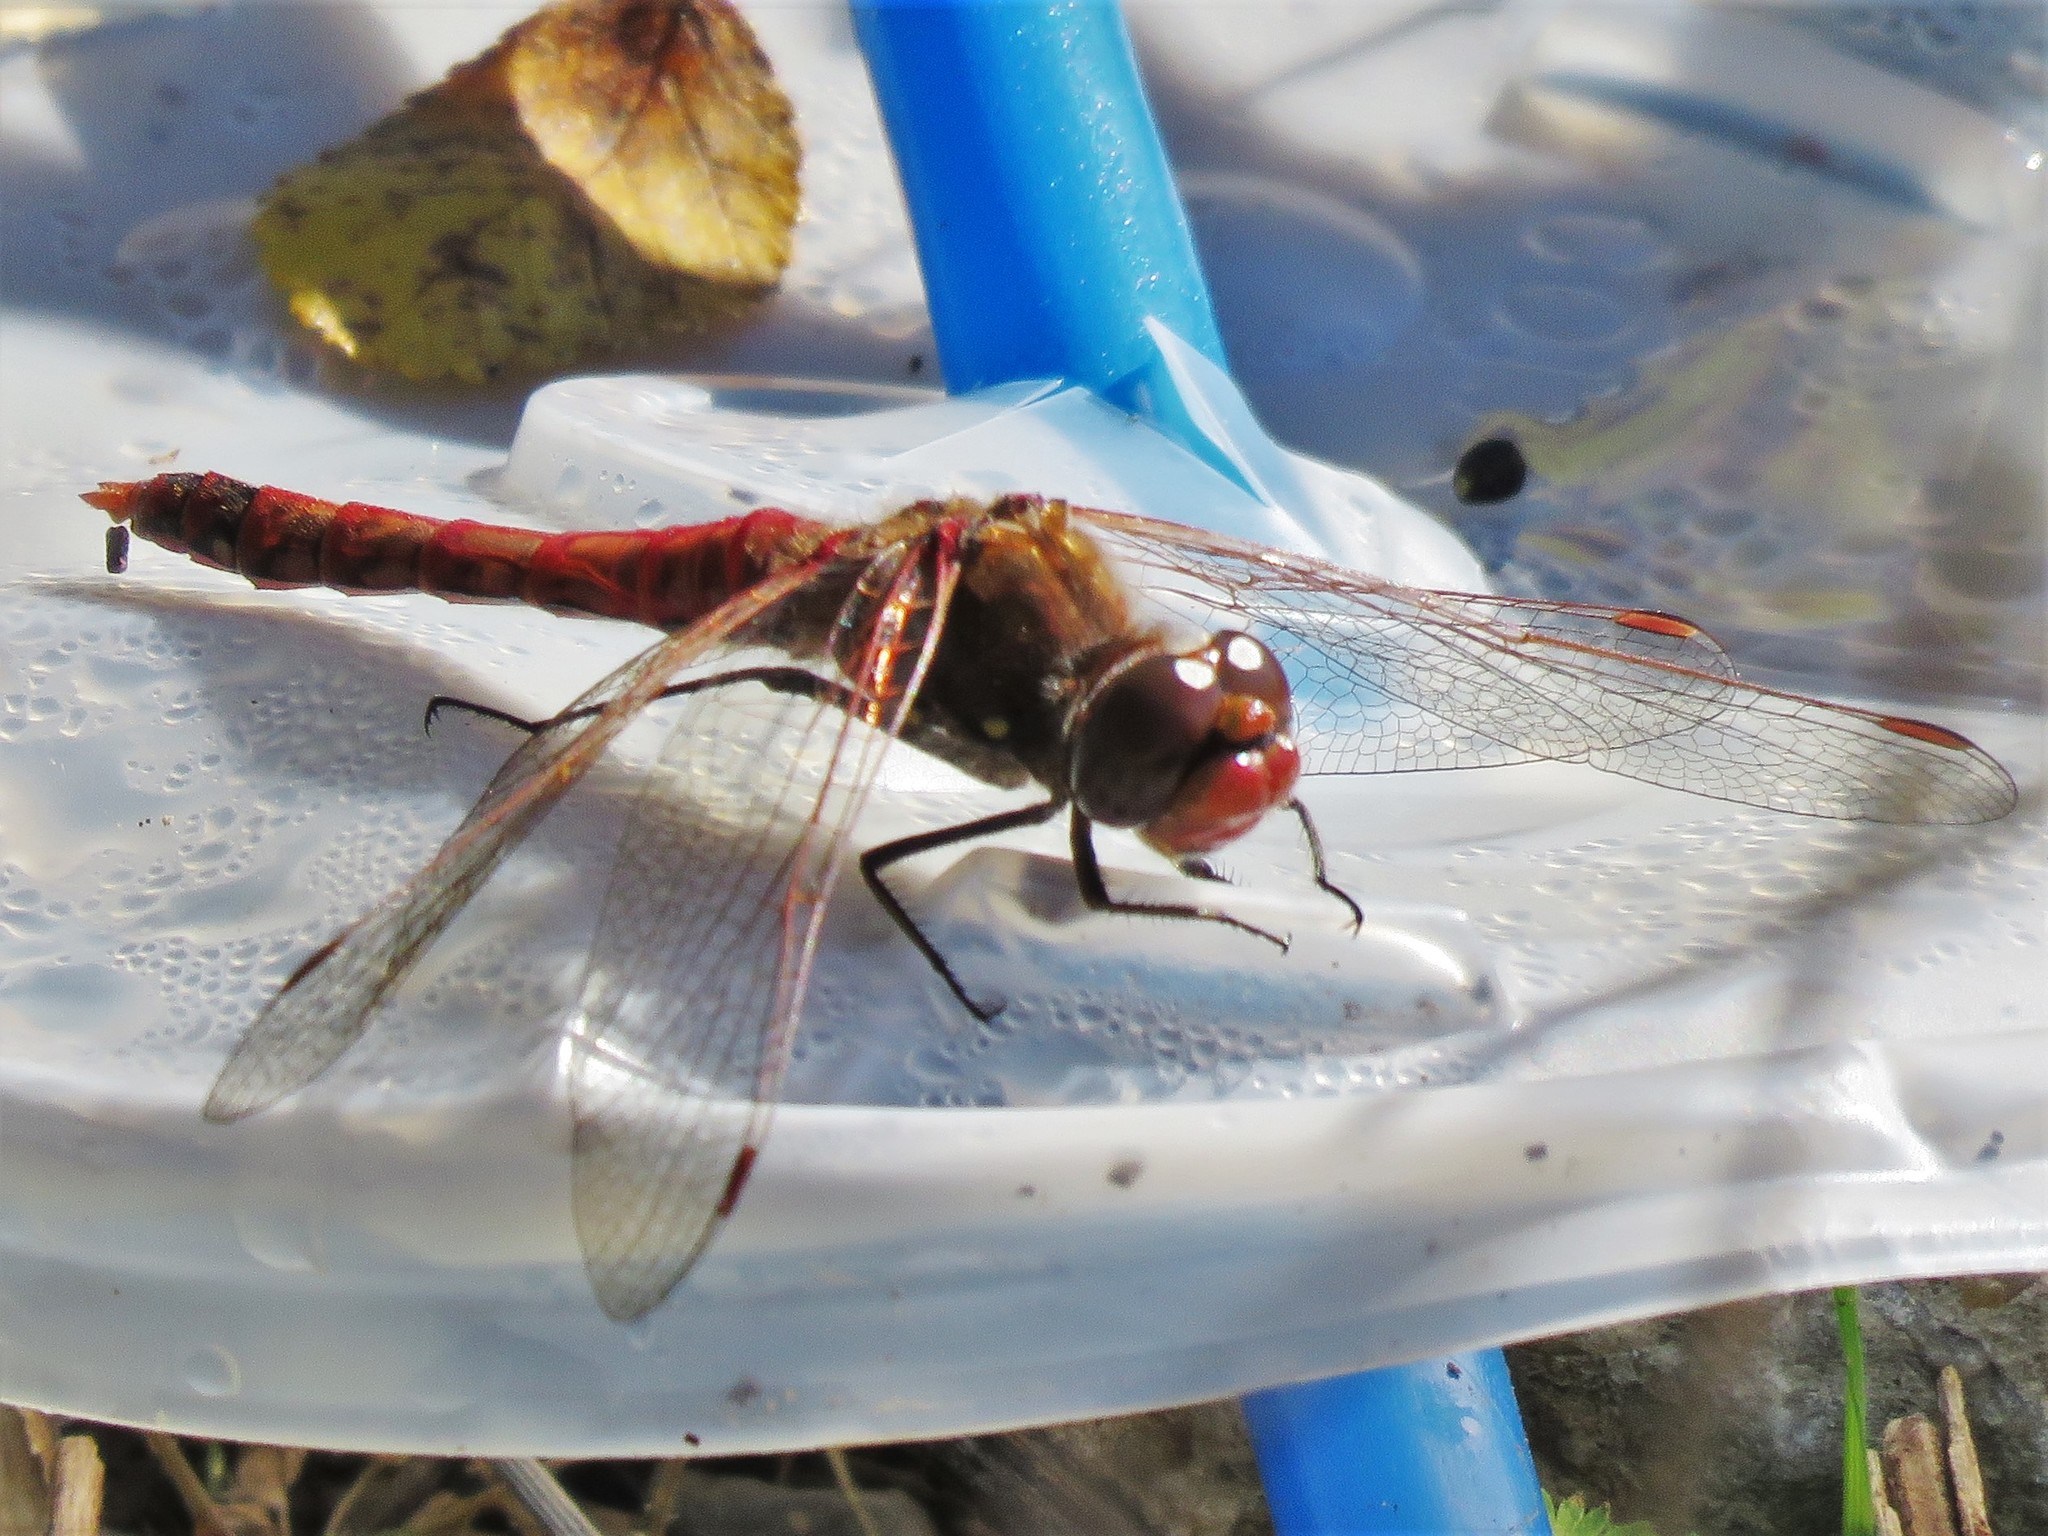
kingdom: Animalia
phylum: Arthropoda
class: Insecta
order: Odonata
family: Libellulidae
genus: Sympetrum
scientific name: Sympetrum corruptum
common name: Variegated meadowhawk
